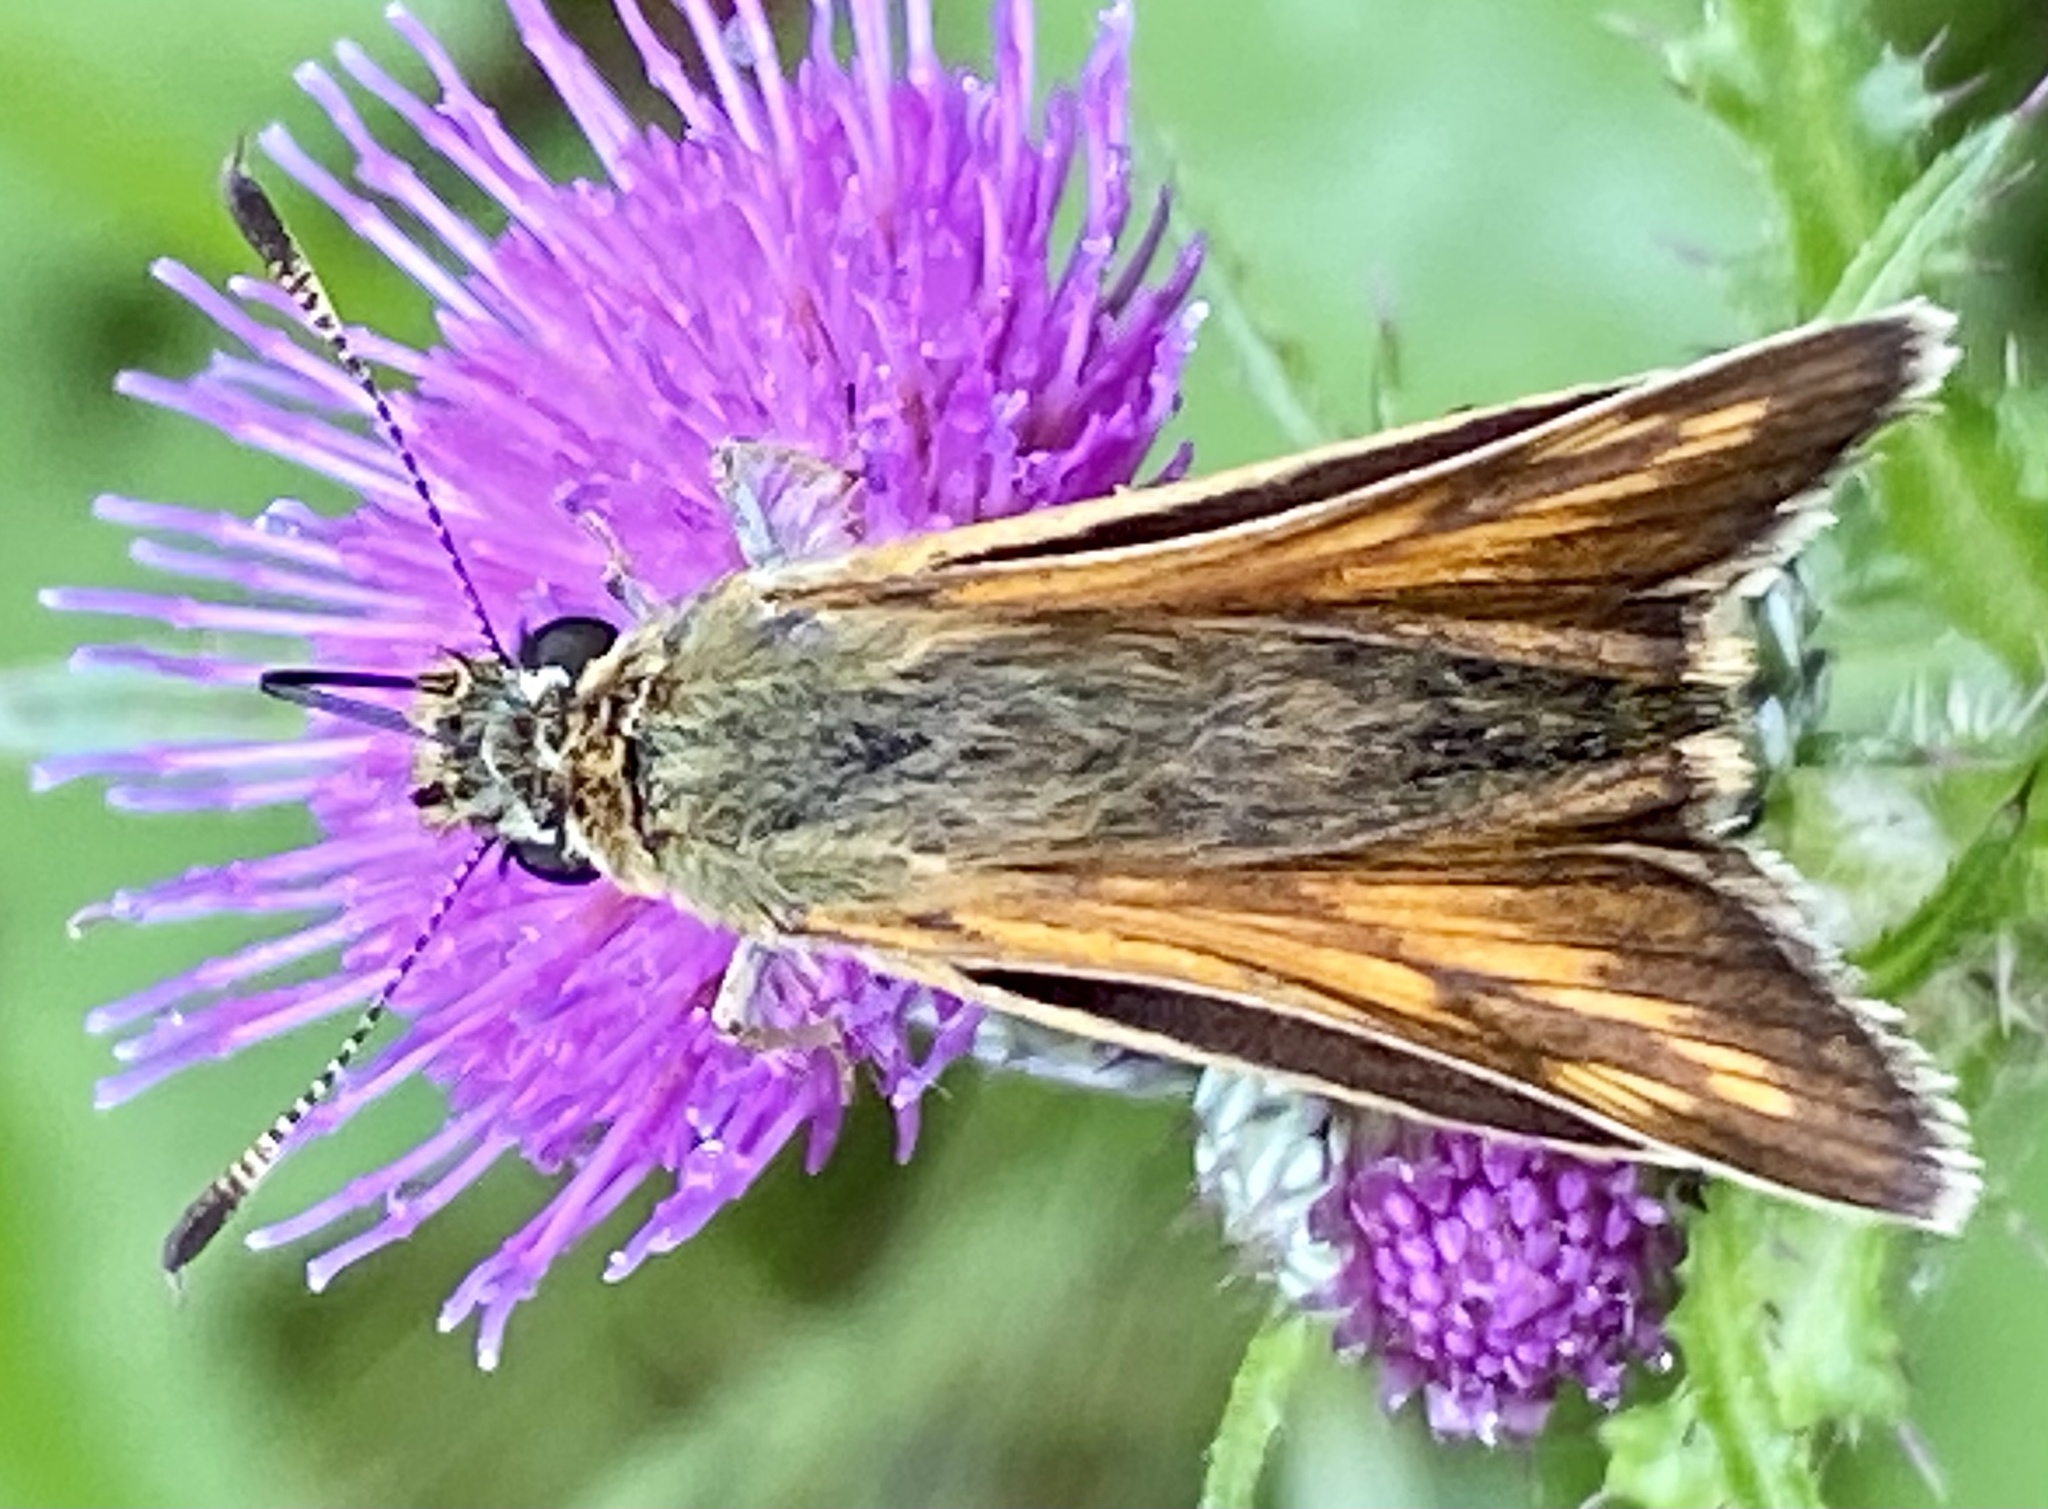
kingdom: Animalia
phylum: Arthropoda
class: Insecta
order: Lepidoptera
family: Hesperiidae
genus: Ochlodes
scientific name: Ochlodes venata
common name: Large skipper
